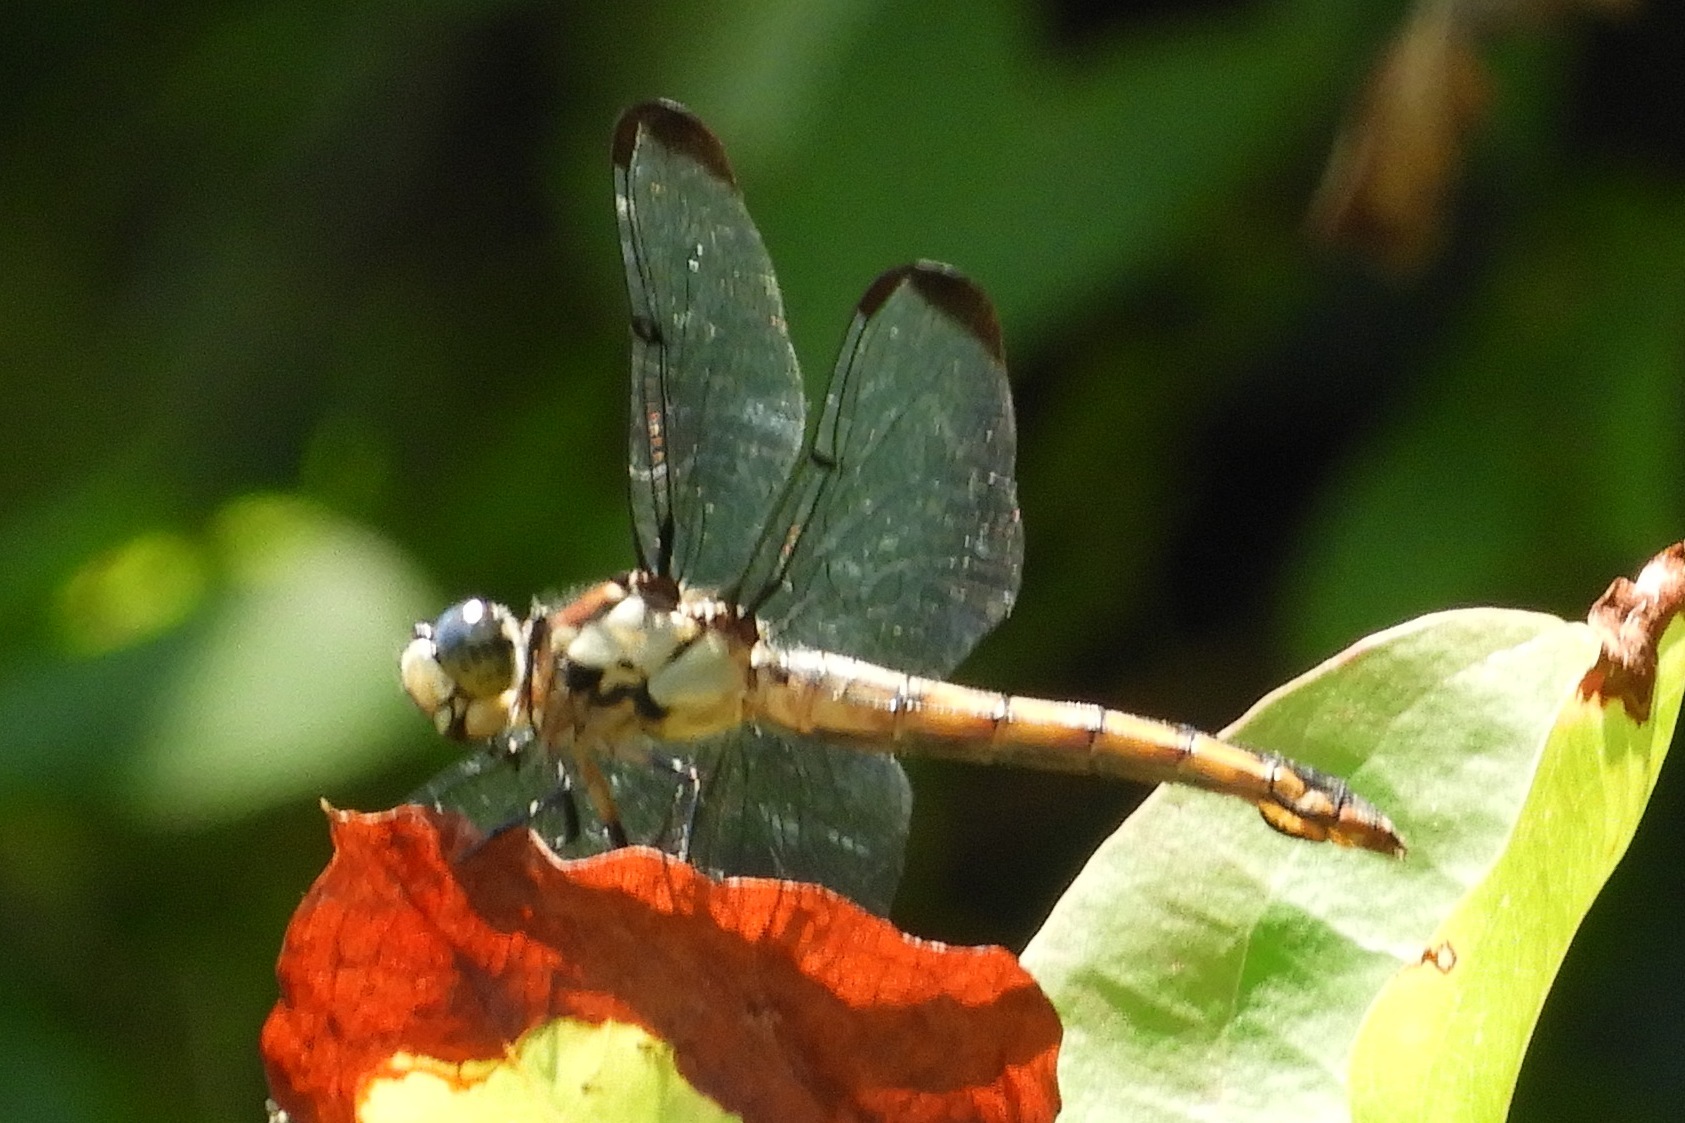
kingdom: Animalia
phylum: Arthropoda
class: Insecta
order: Odonata
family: Libellulidae
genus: Libellula
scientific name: Libellula vibrans
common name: Great blue skimmer
